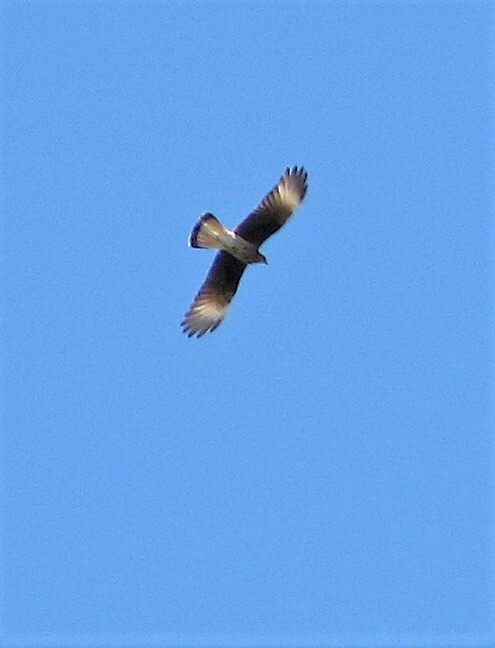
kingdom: Animalia
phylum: Chordata
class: Aves
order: Falconiformes
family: Falconidae
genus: Caracara
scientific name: Caracara plancus
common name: Southern caracara
